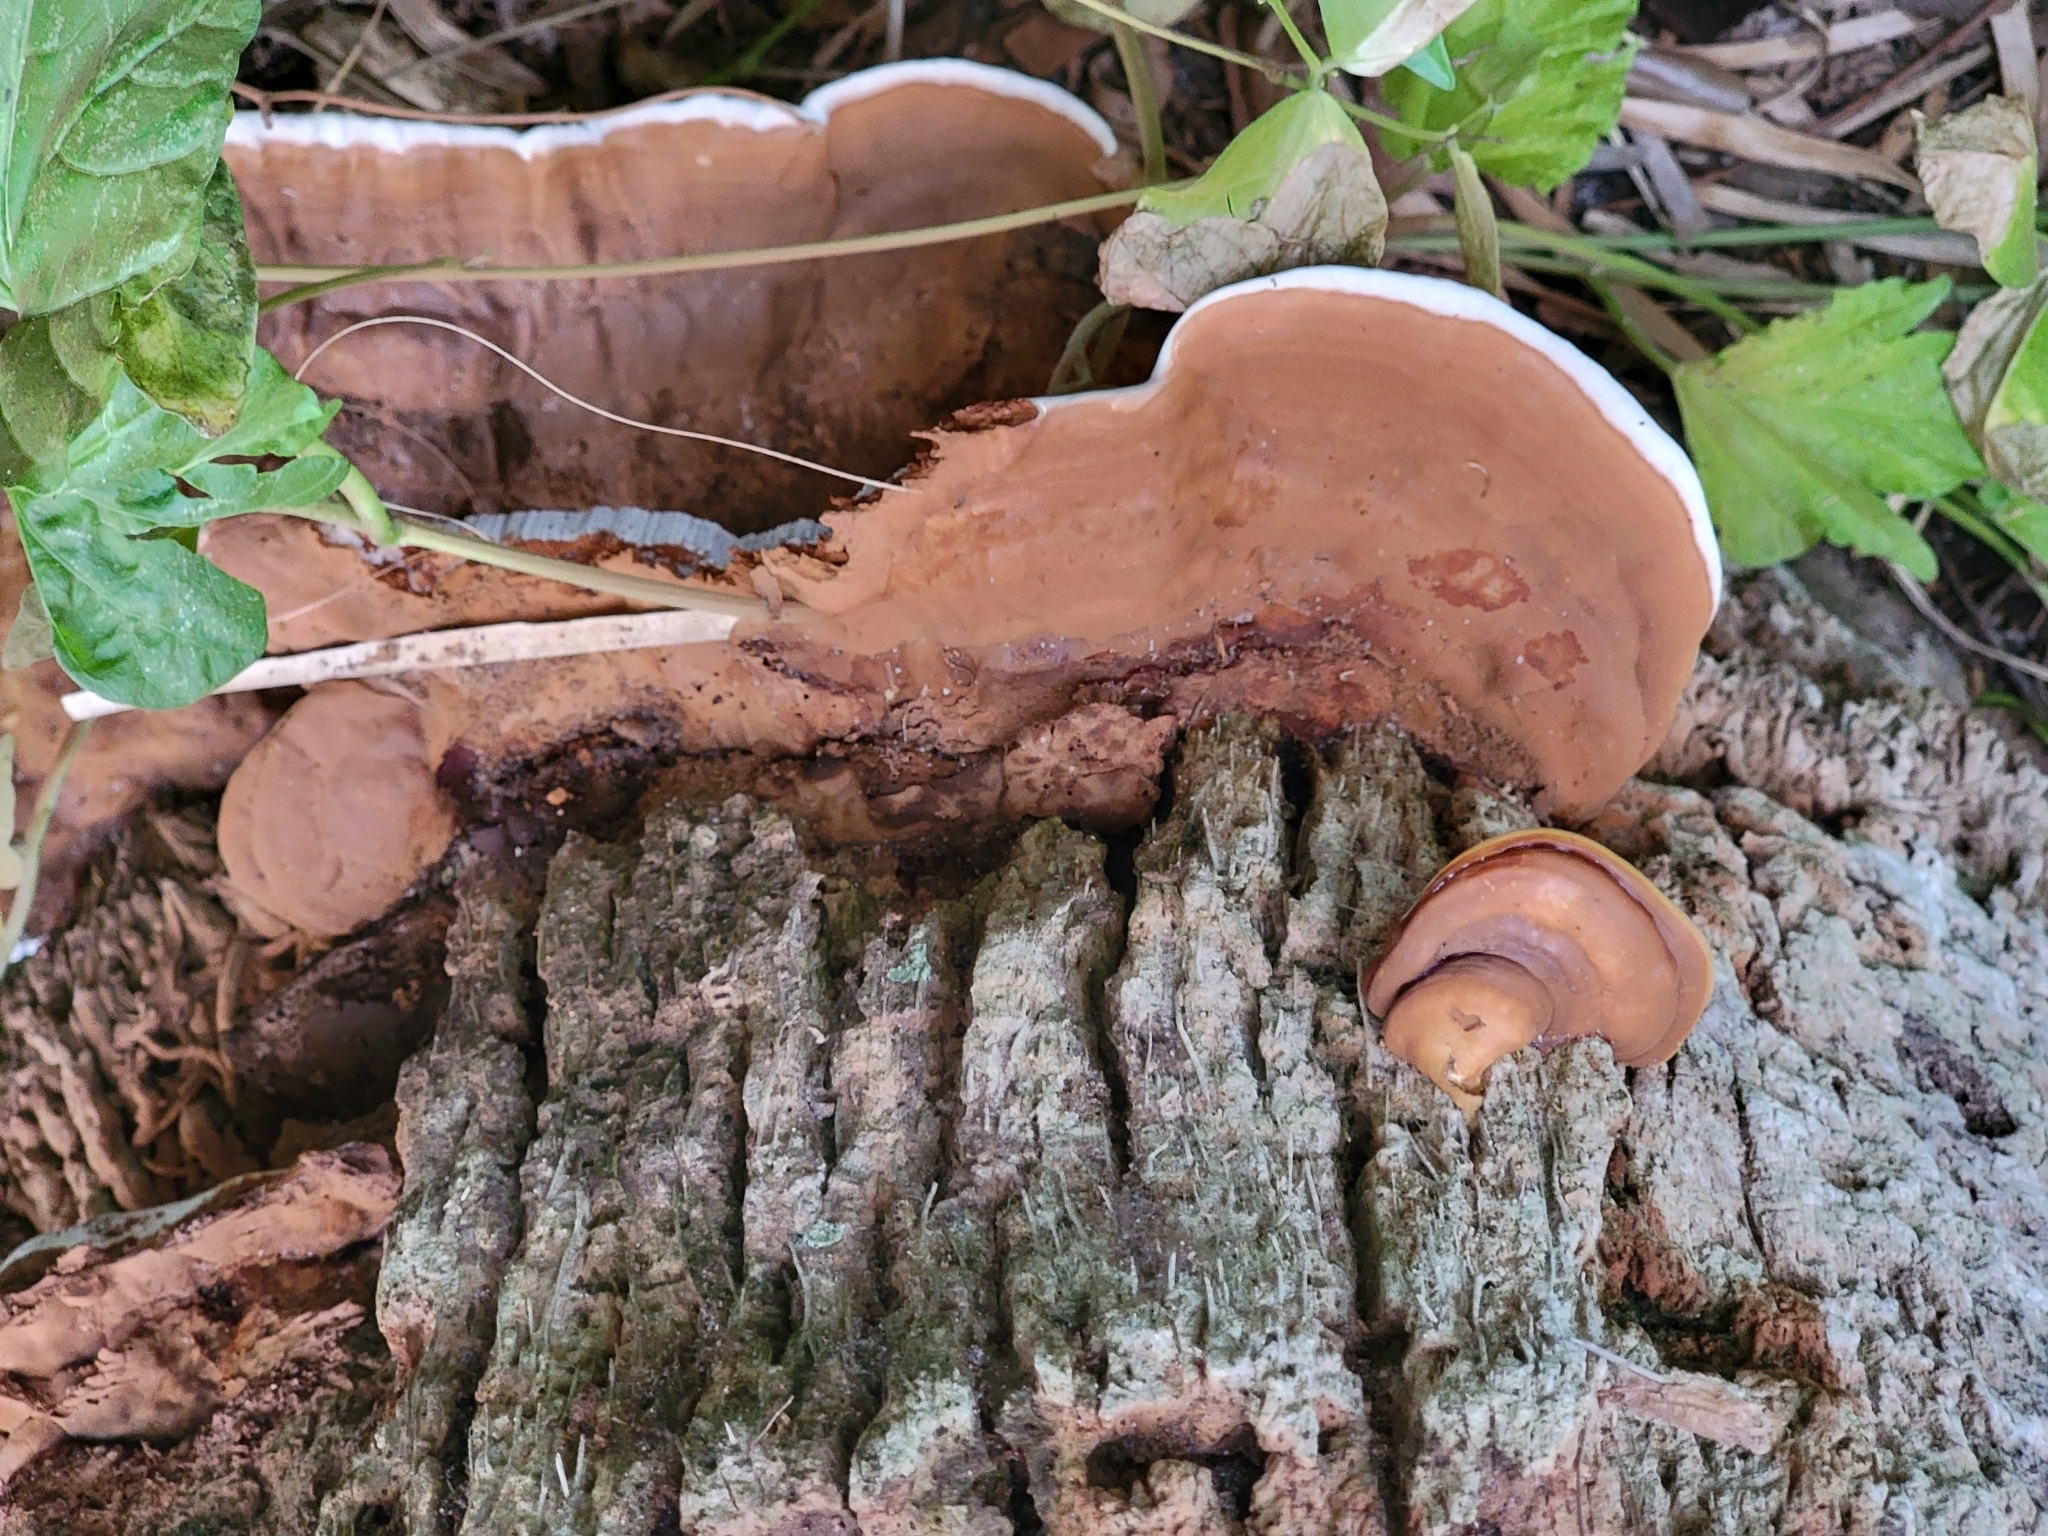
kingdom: Fungi
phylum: Basidiomycota
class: Agaricomycetes
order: Polyporales
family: Polyporaceae
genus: Ganoderma
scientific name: Ganoderma zonatum
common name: Ganoderma butt rot
